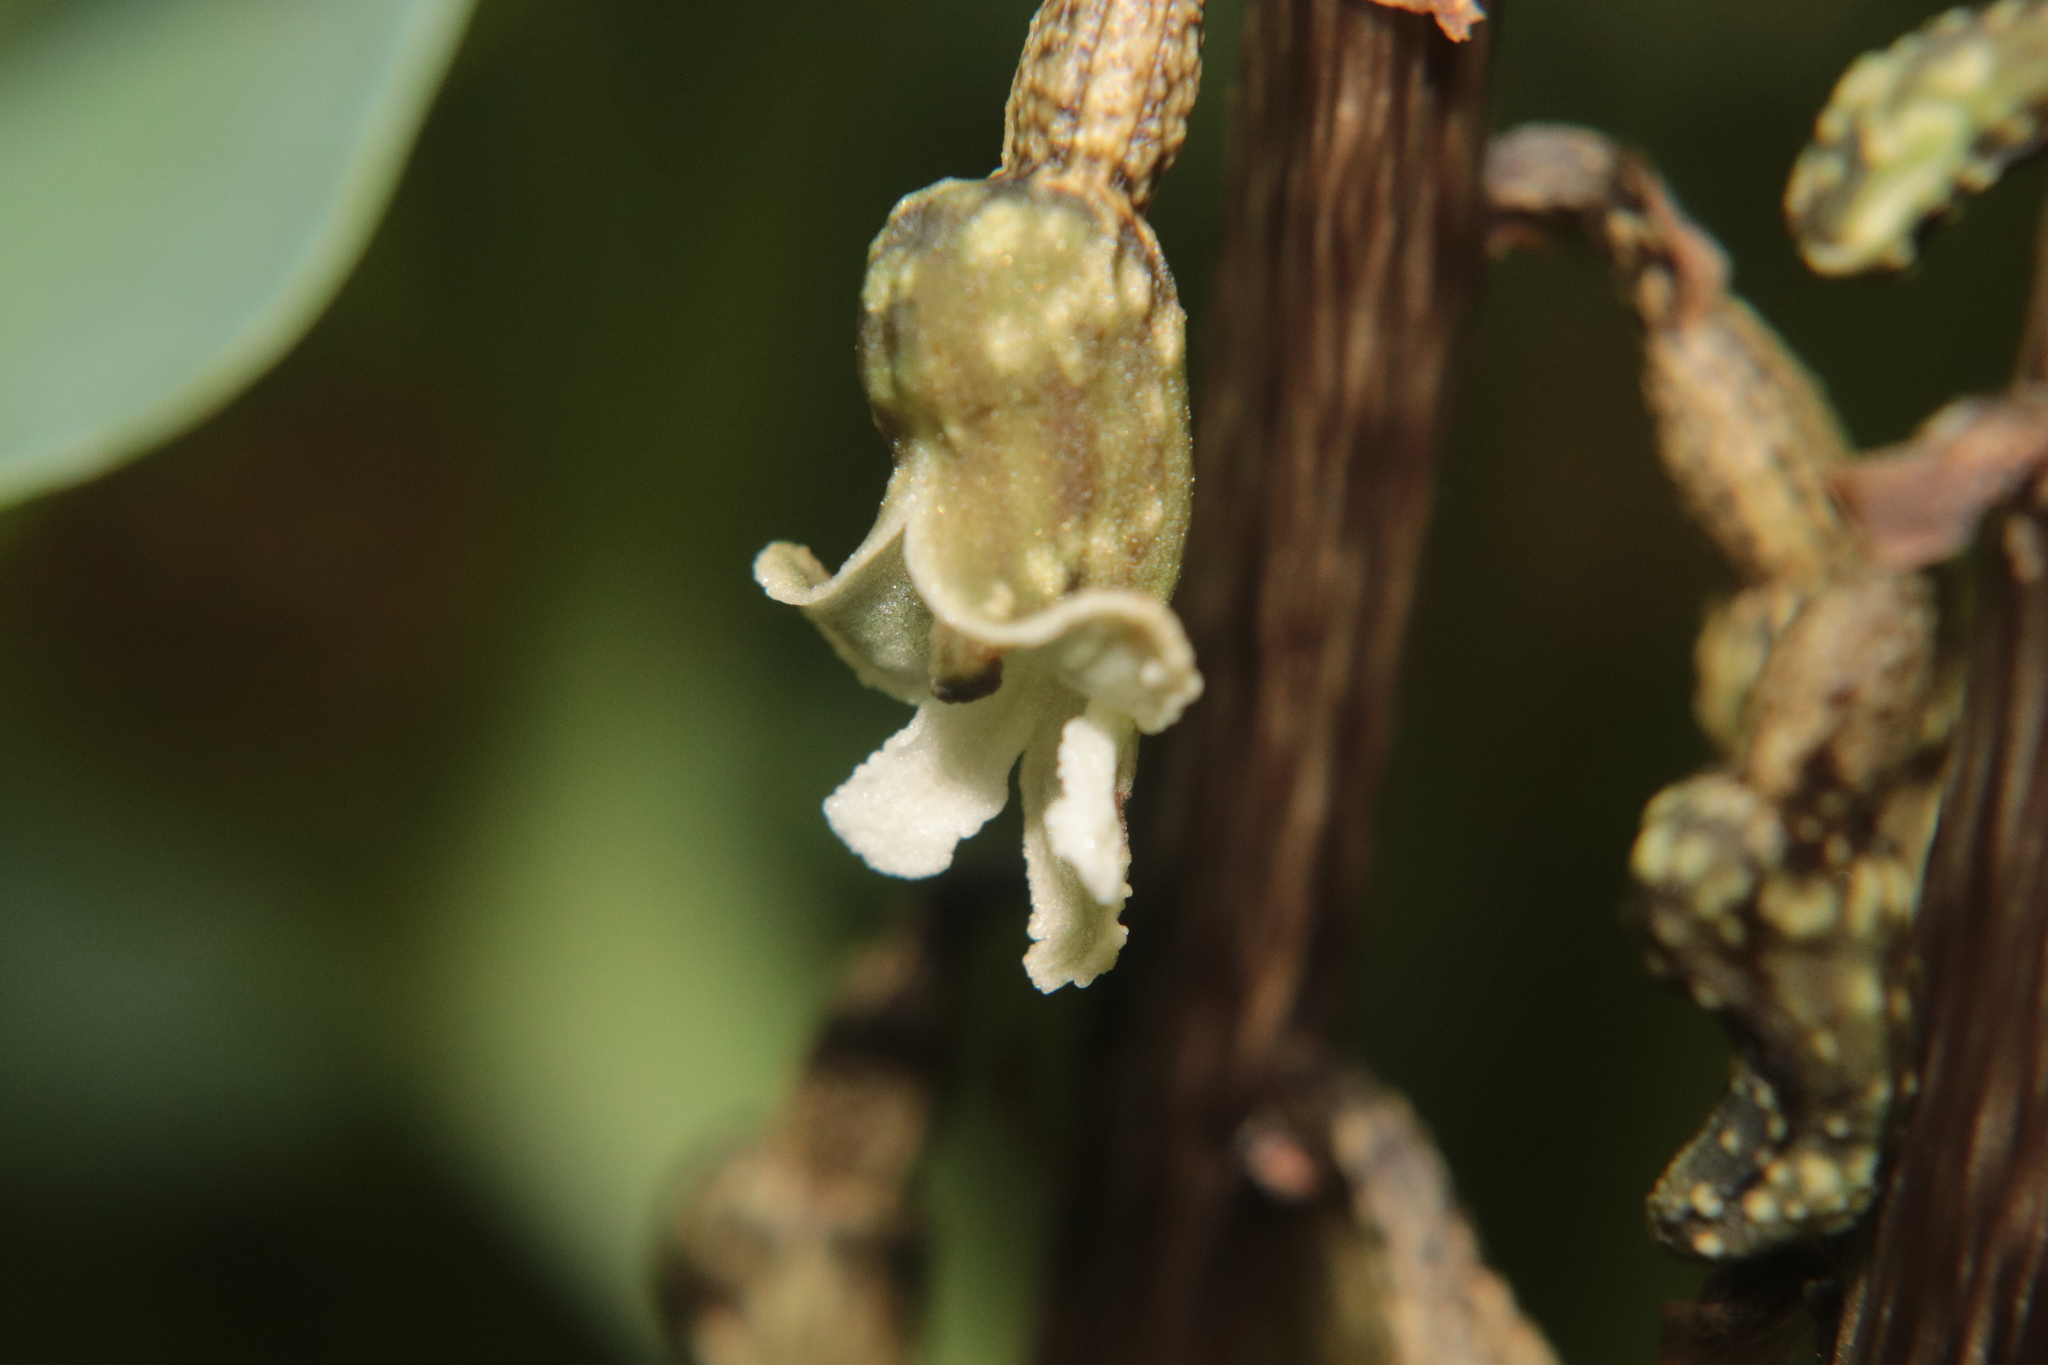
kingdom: Plantae
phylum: Tracheophyta
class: Liliopsida
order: Asparagales
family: Orchidaceae
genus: Gastrodia
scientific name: Gastrodia cunninghamii
